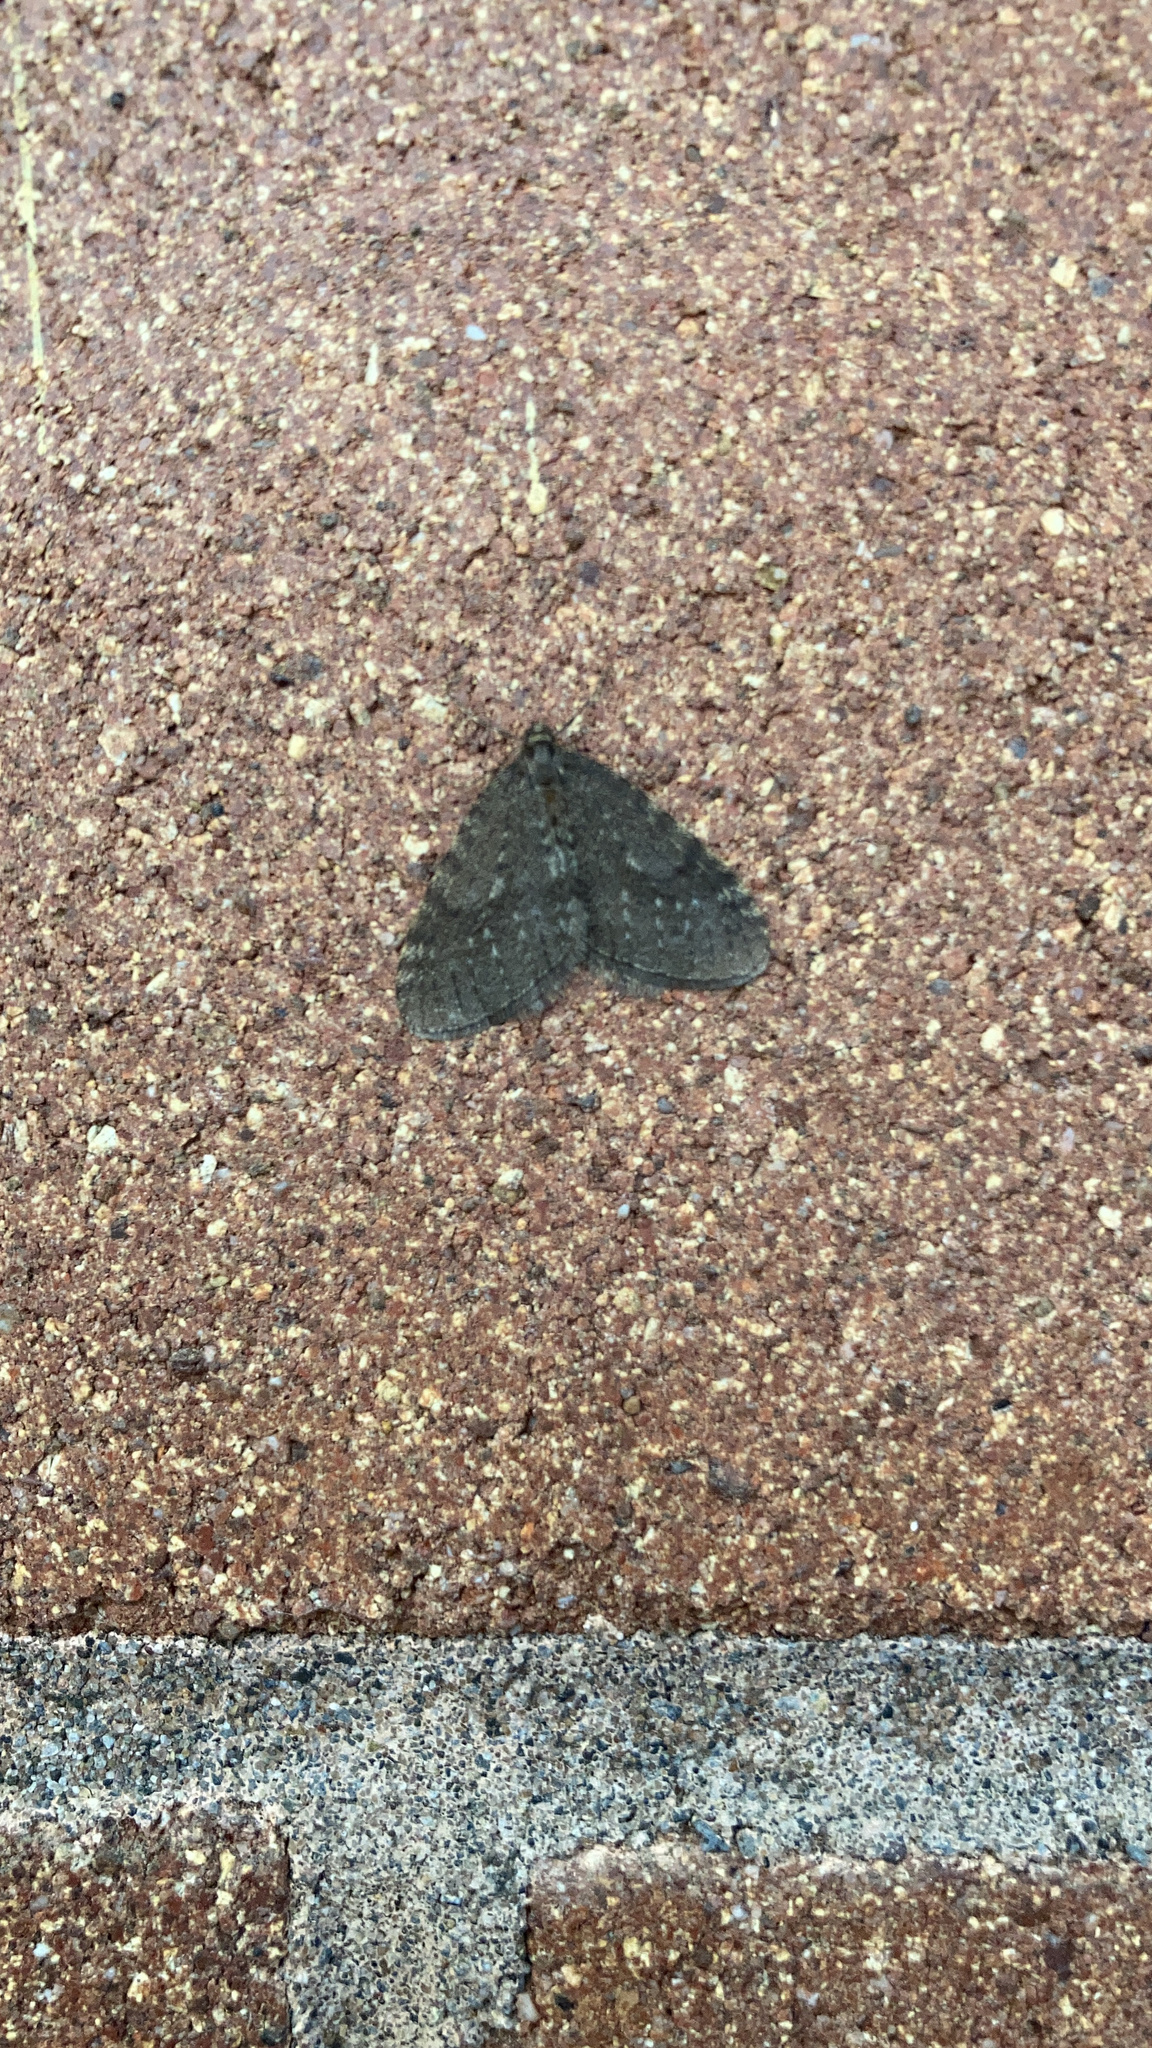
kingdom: Animalia
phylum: Arthropoda
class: Insecta
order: Lepidoptera
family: Geometridae
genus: Operophtera
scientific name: Operophtera occidentalis
